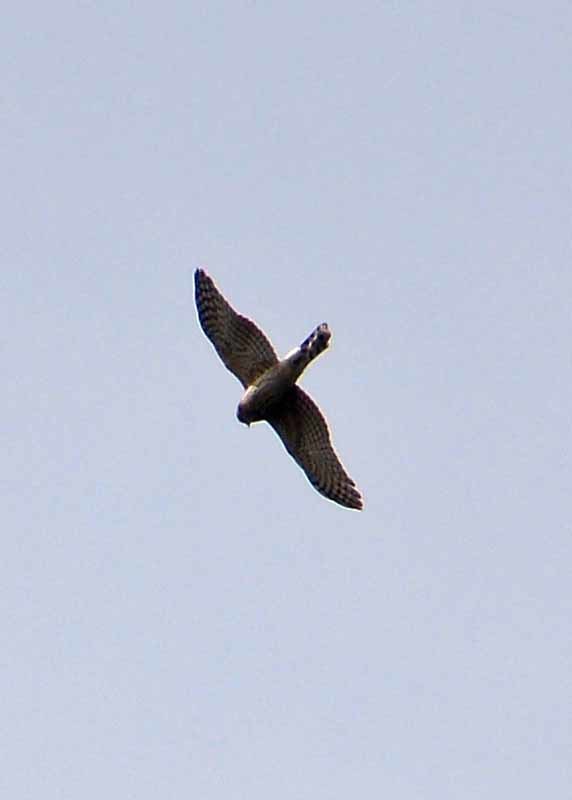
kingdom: Animalia
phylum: Chordata
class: Aves
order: Accipitriformes
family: Accipitridae
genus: Circus
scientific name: Circus cyaneus
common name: Hen harrier
